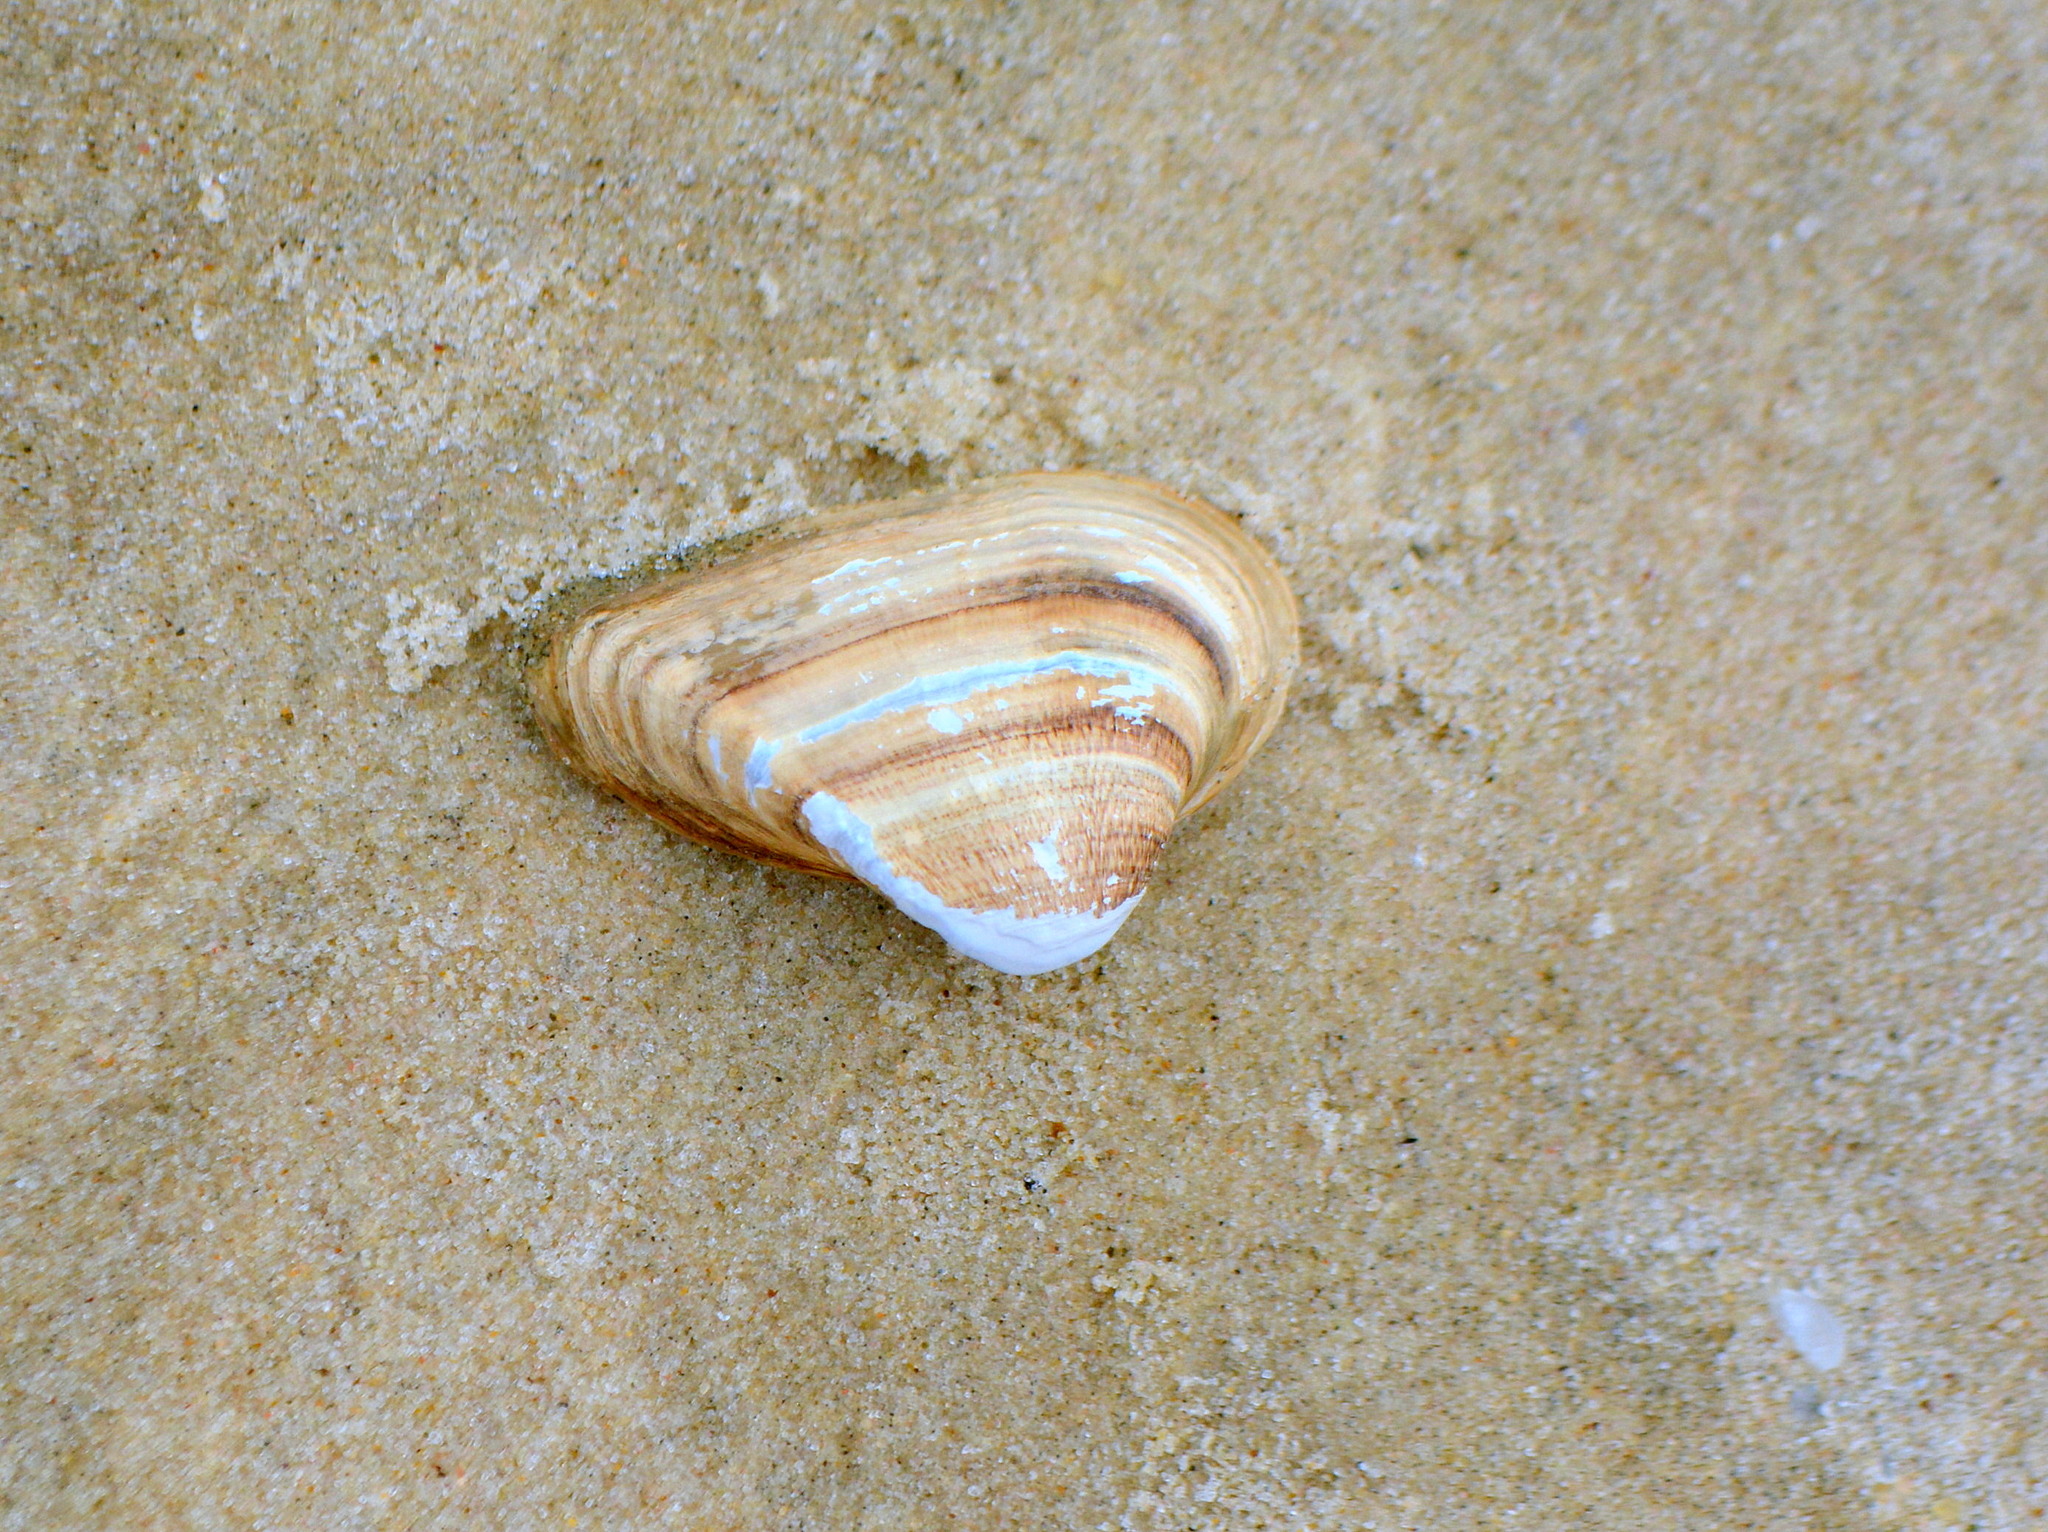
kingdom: Animalia
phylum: Mollusca
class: Bivalvia
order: Myida
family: Corbulidae
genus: Erodona
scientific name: Erodona mactroides
